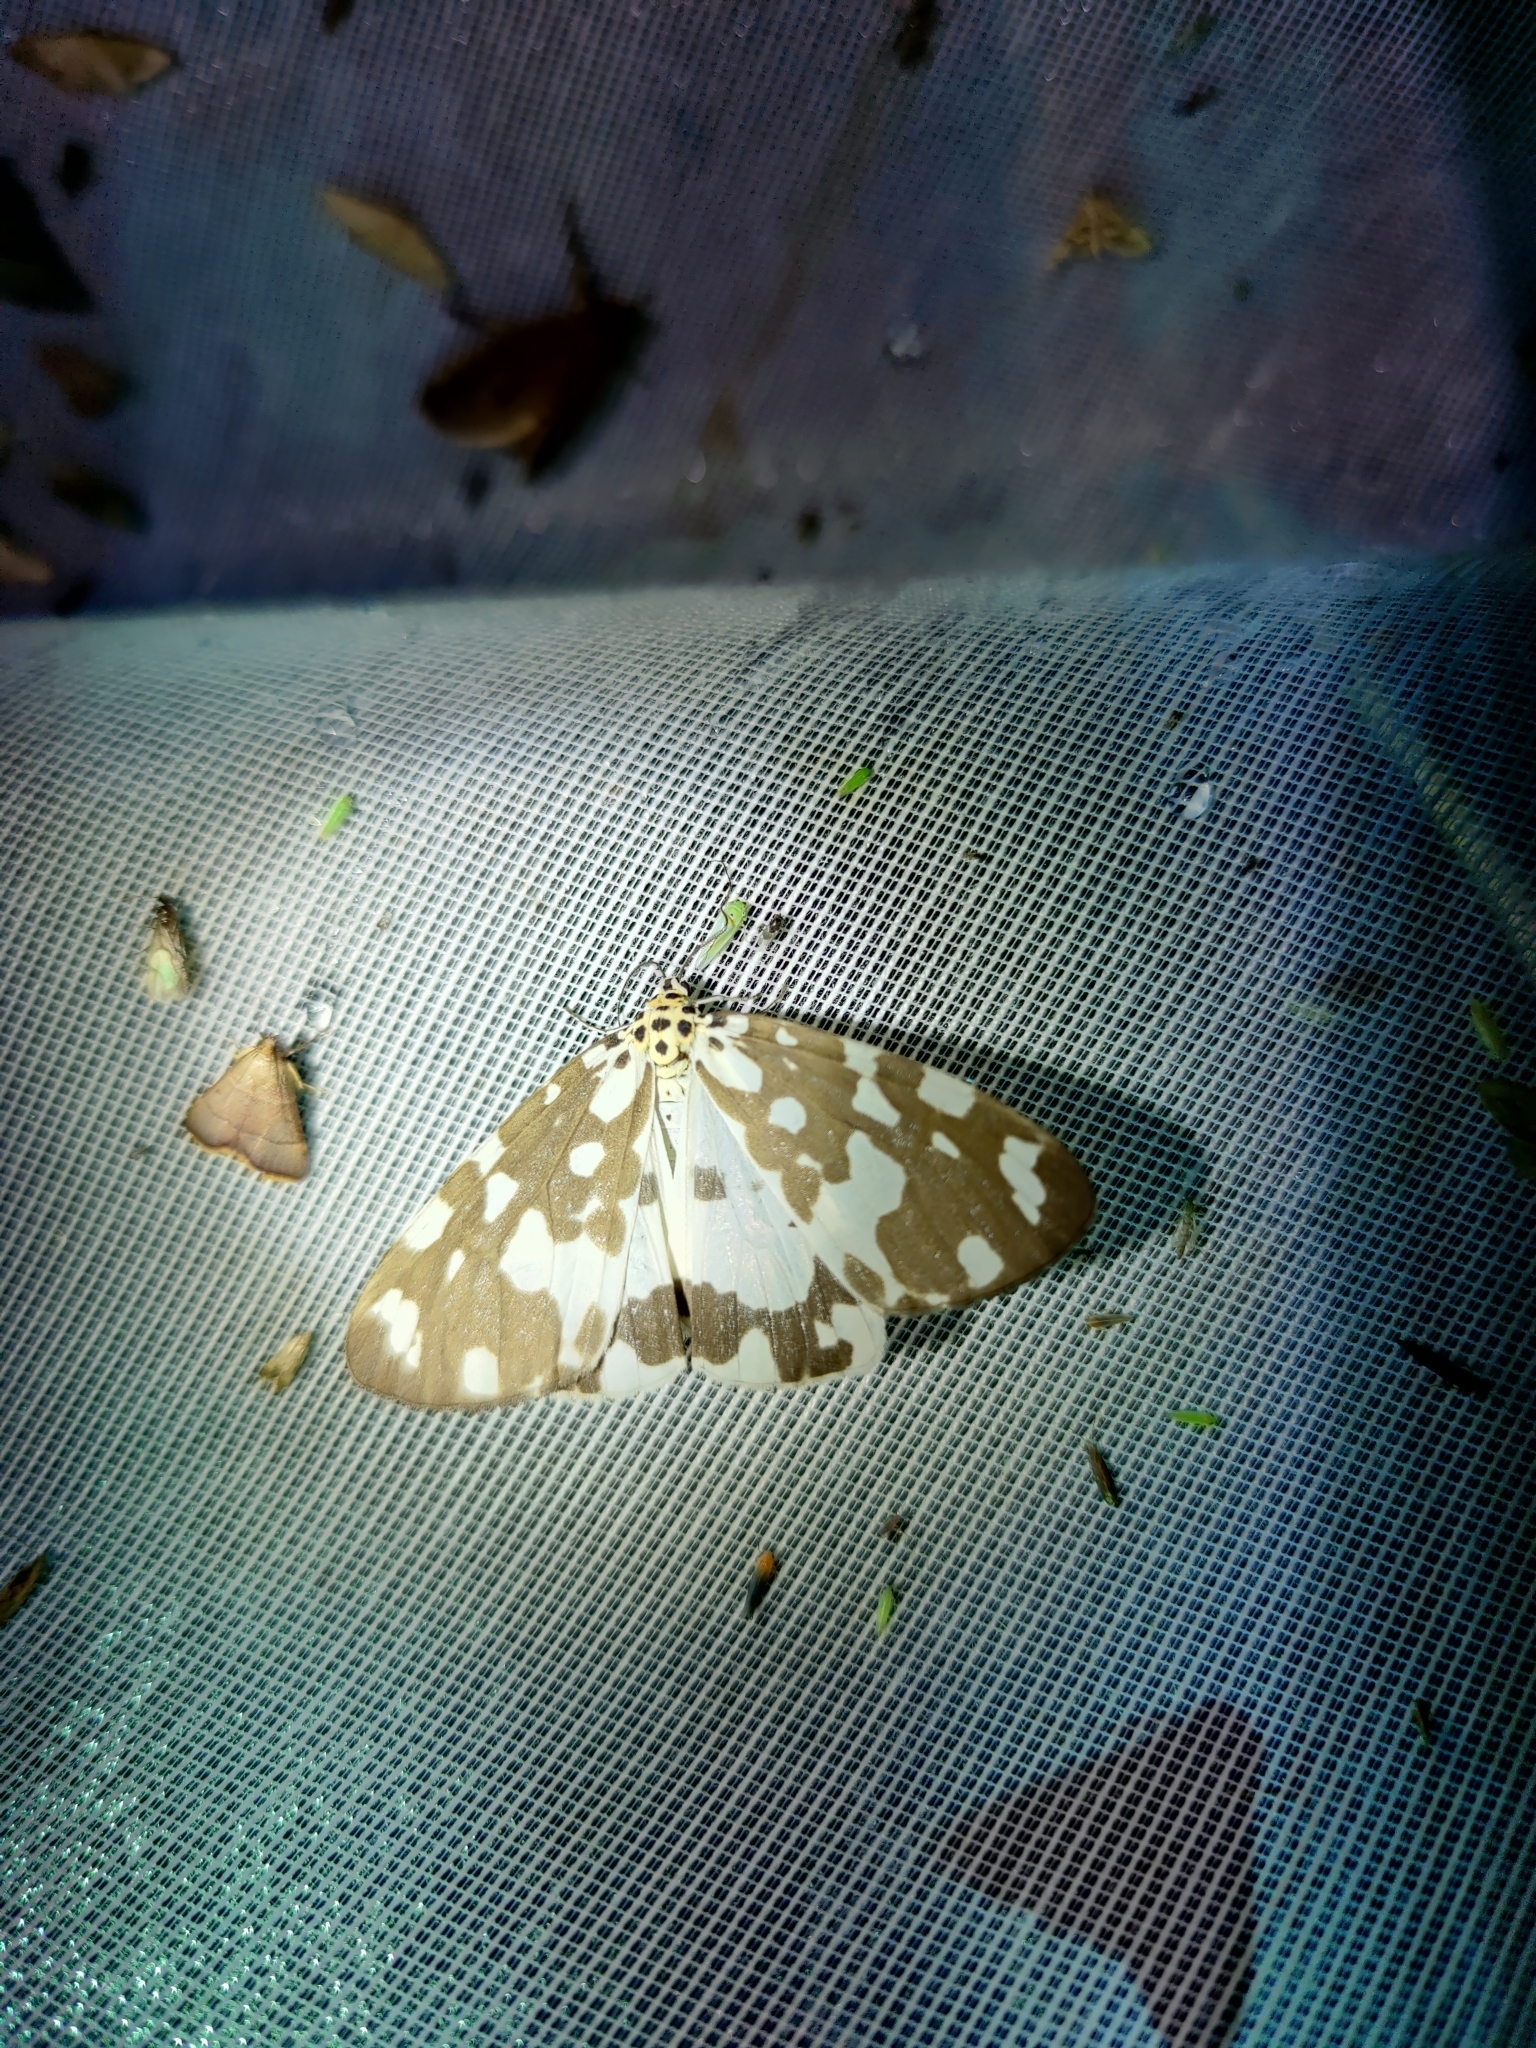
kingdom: Animalia
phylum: Arthropoda
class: Insecta
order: Lepidoptera
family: Erebidae
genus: Utetheisa
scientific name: Utetheisa
